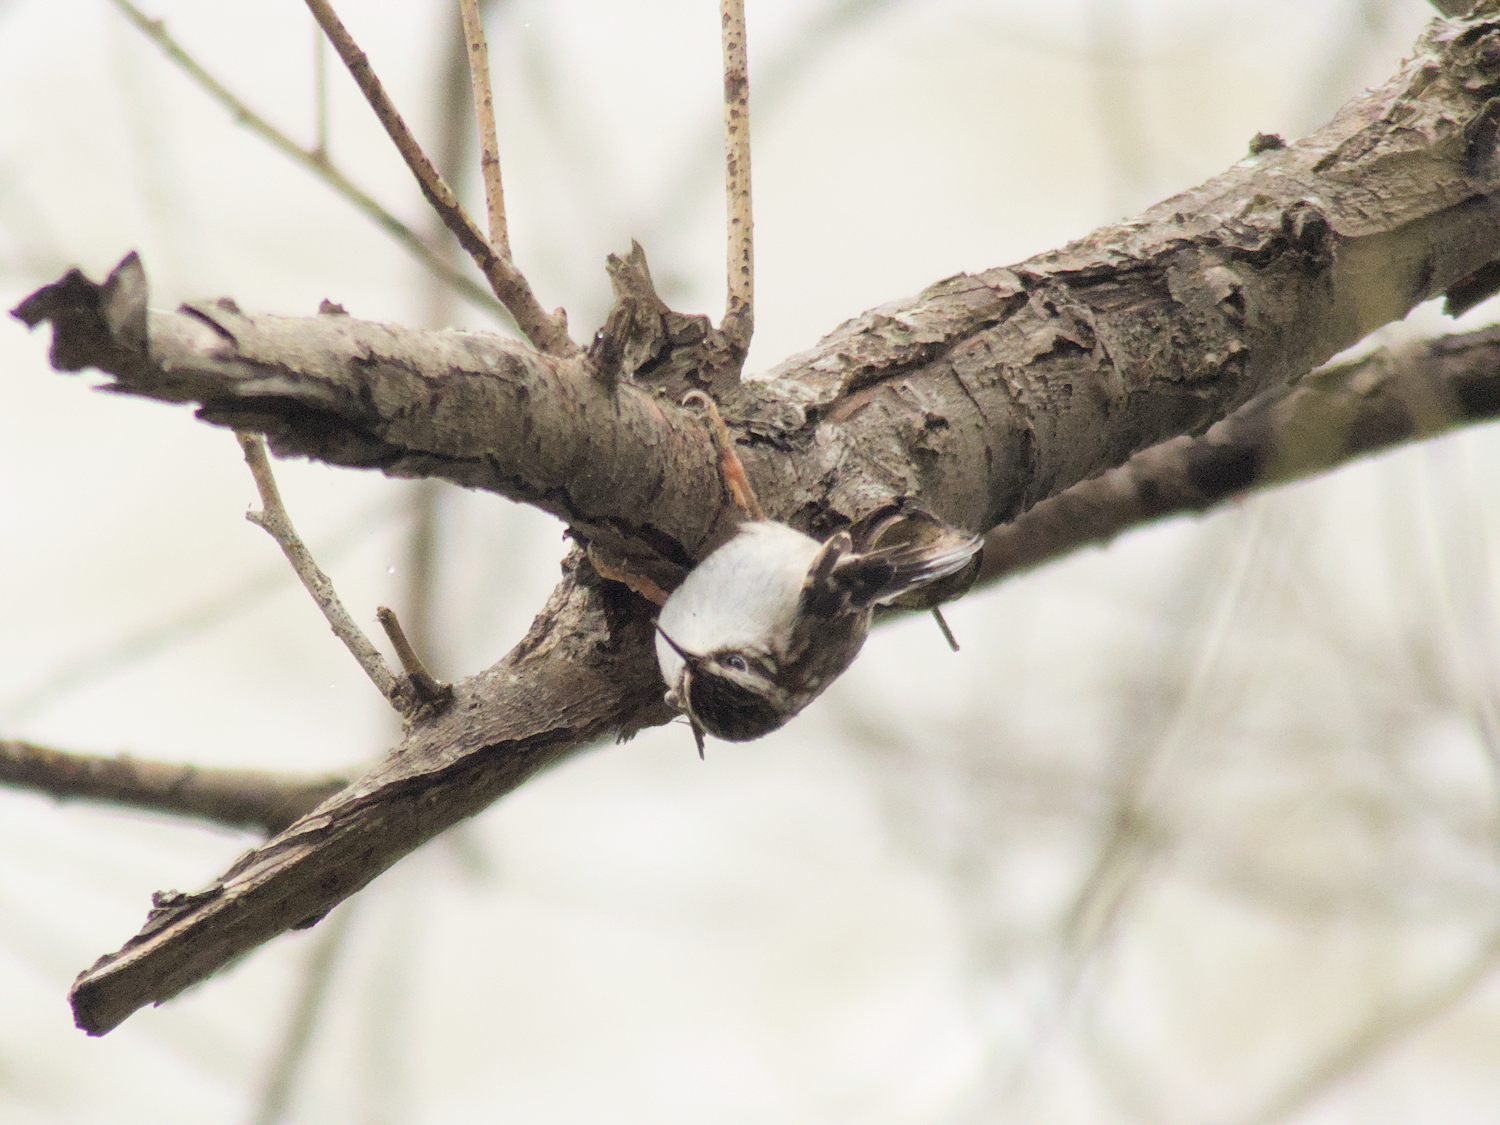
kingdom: Animalia
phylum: Chordata
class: Aves
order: Passeriformes
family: Certhiidae
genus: Certhia
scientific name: Certhia americana
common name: Brown creeper
